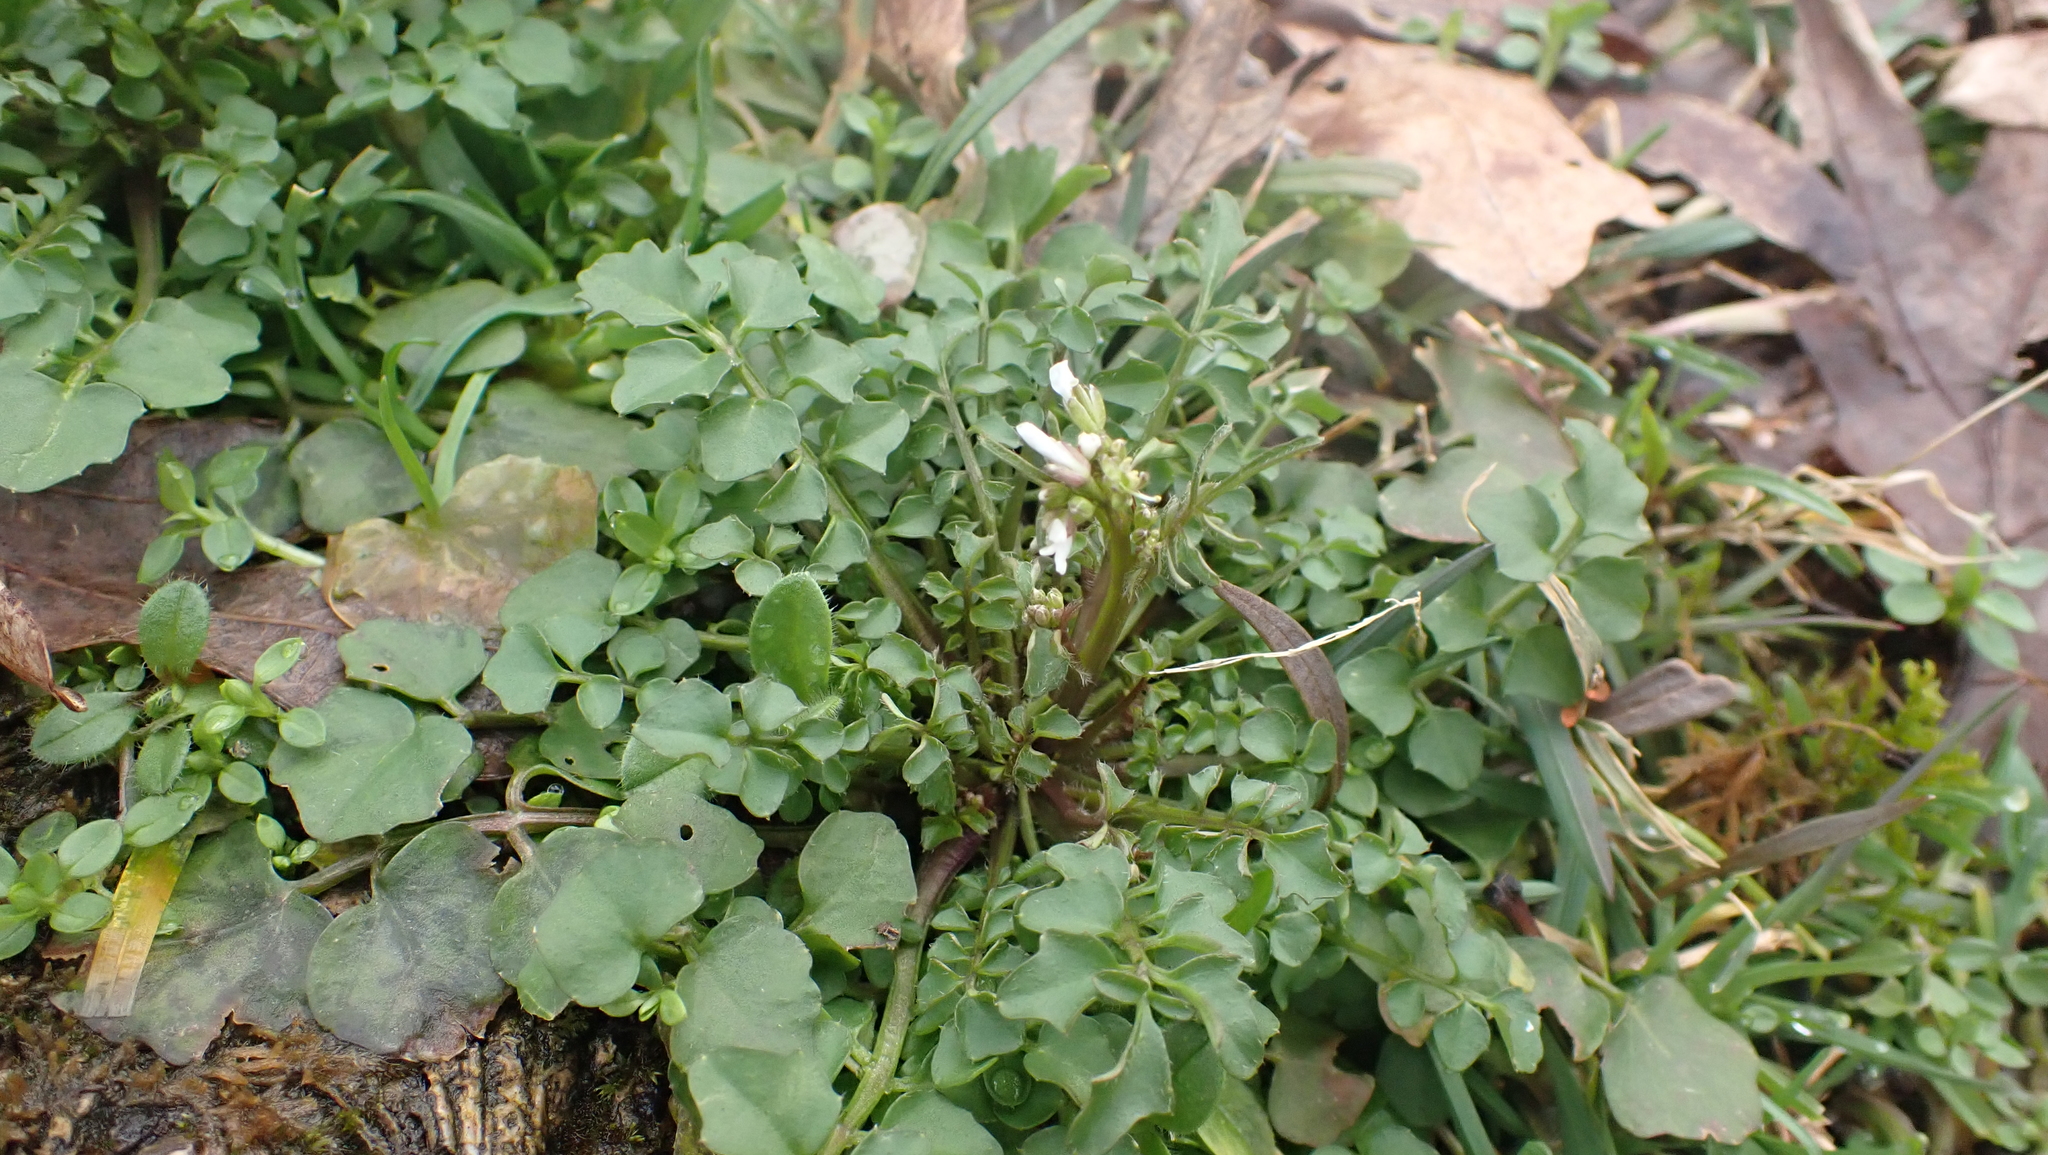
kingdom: Plantae
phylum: Tracheophyta
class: Magnoliopsida
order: Brassicales
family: Brassicaceae
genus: Cardamine
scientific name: Cardamine hirsuta
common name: Hairy bittercress
